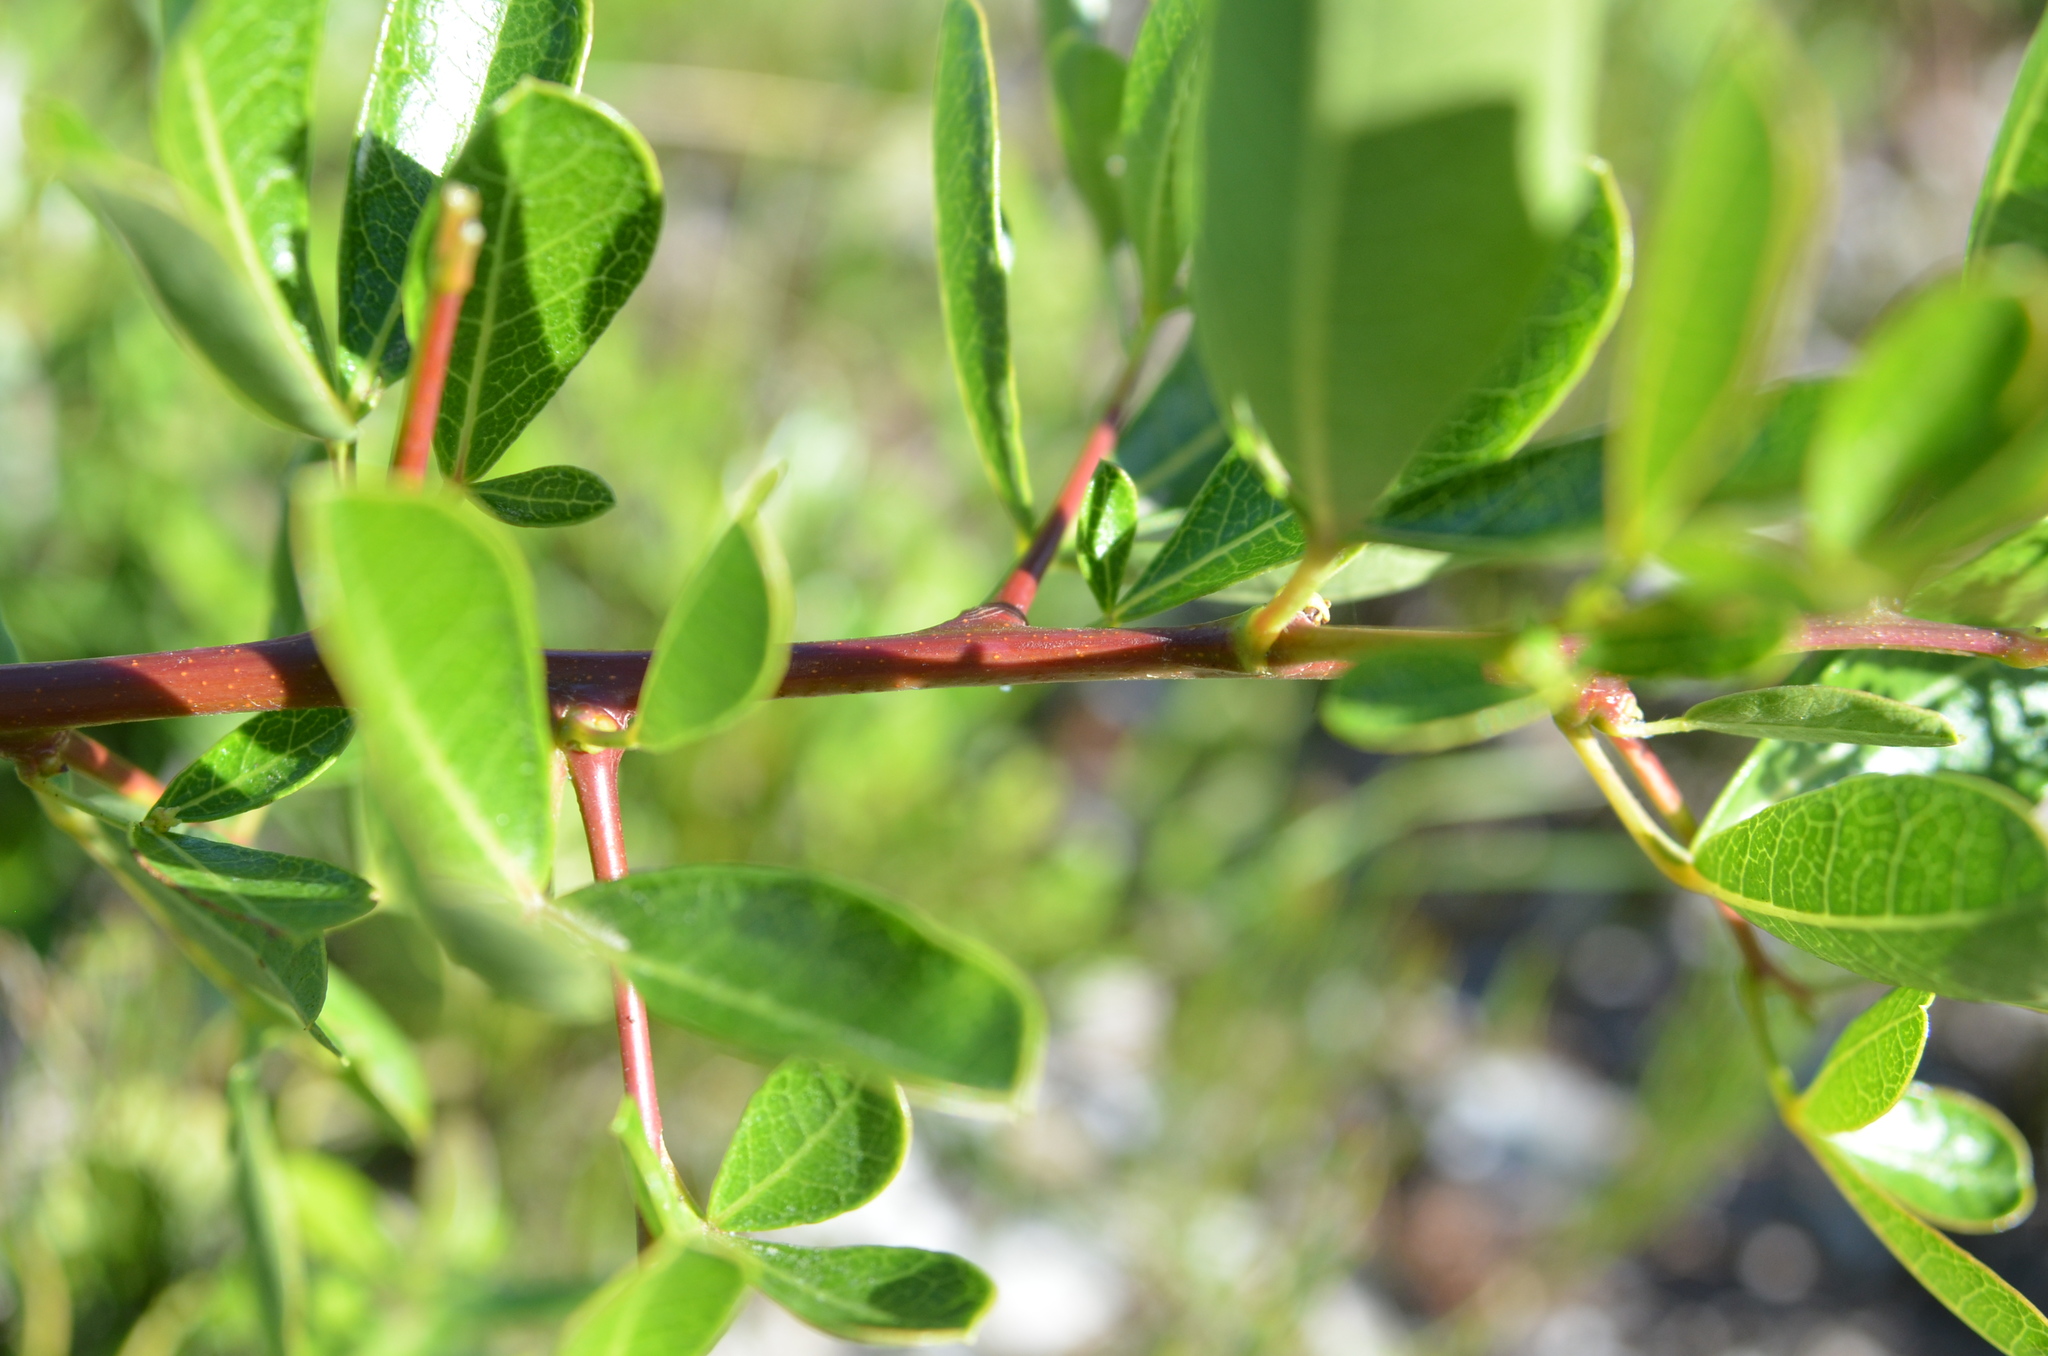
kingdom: Plantae
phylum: Tracheophyta
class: Magnoliopsida
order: Sapindales
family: Anacardiaceae
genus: Searsia
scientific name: Searsia laevigata
